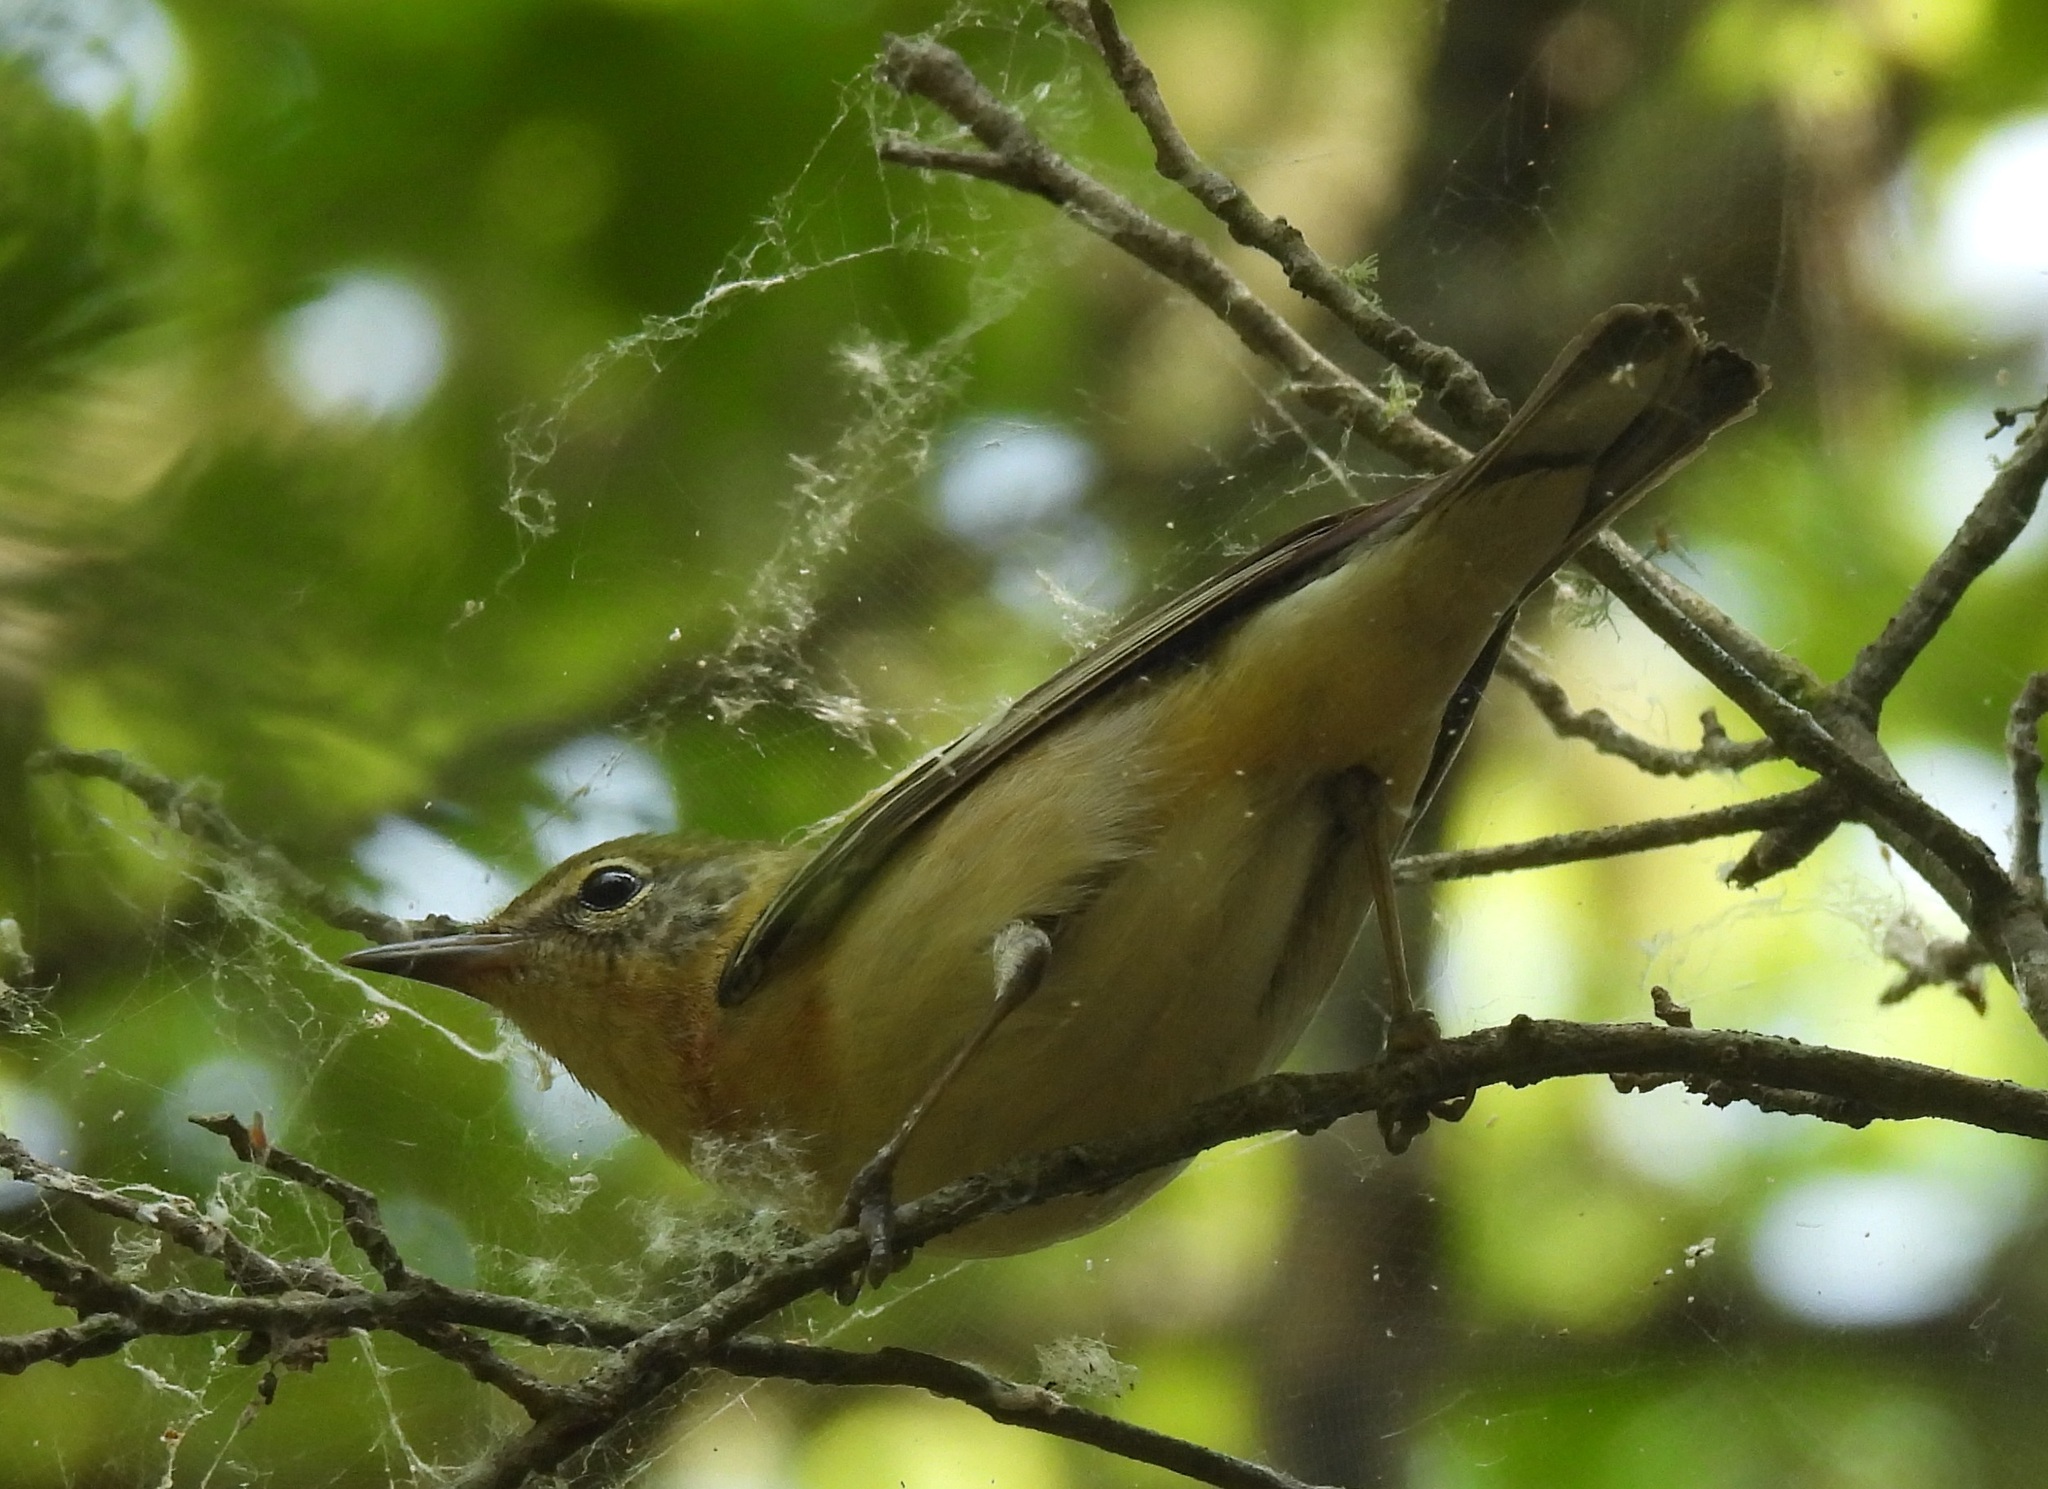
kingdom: Animalia
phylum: Chordata
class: Aves
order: Passeriformes
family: Parulidae
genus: Setophaga
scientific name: Setophaga castanea
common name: Bay-breasted warbler
